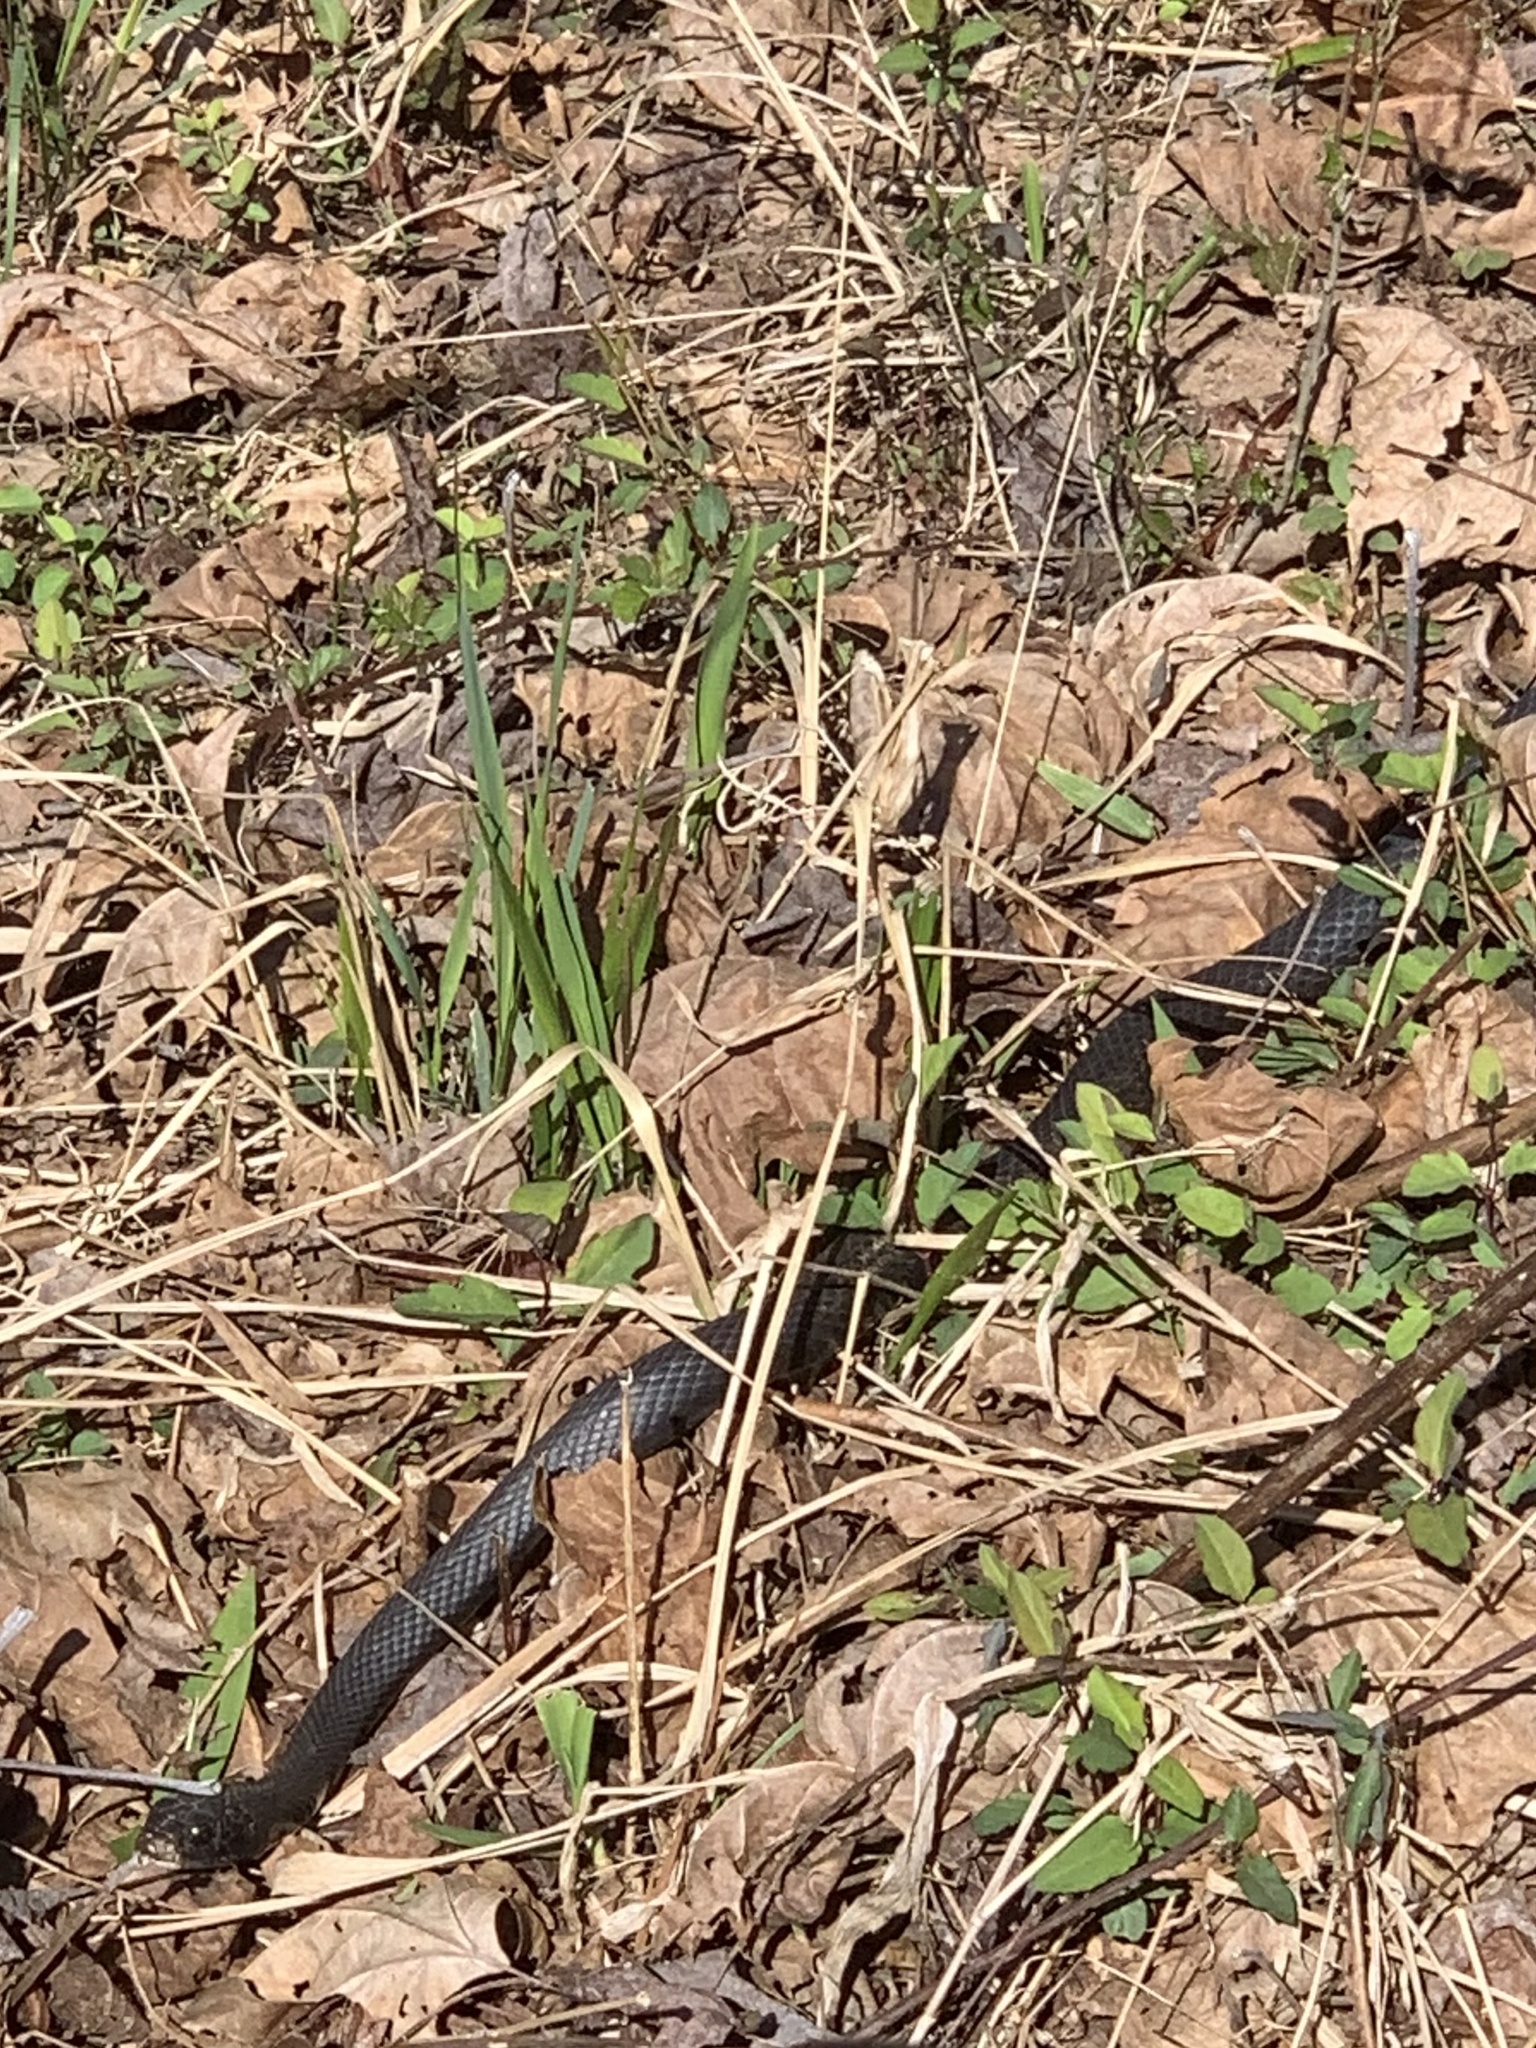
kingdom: Animalia
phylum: Chordata
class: Squamata
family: Colubridae
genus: Coluber
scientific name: Coluber constrictor
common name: Eastern racer
